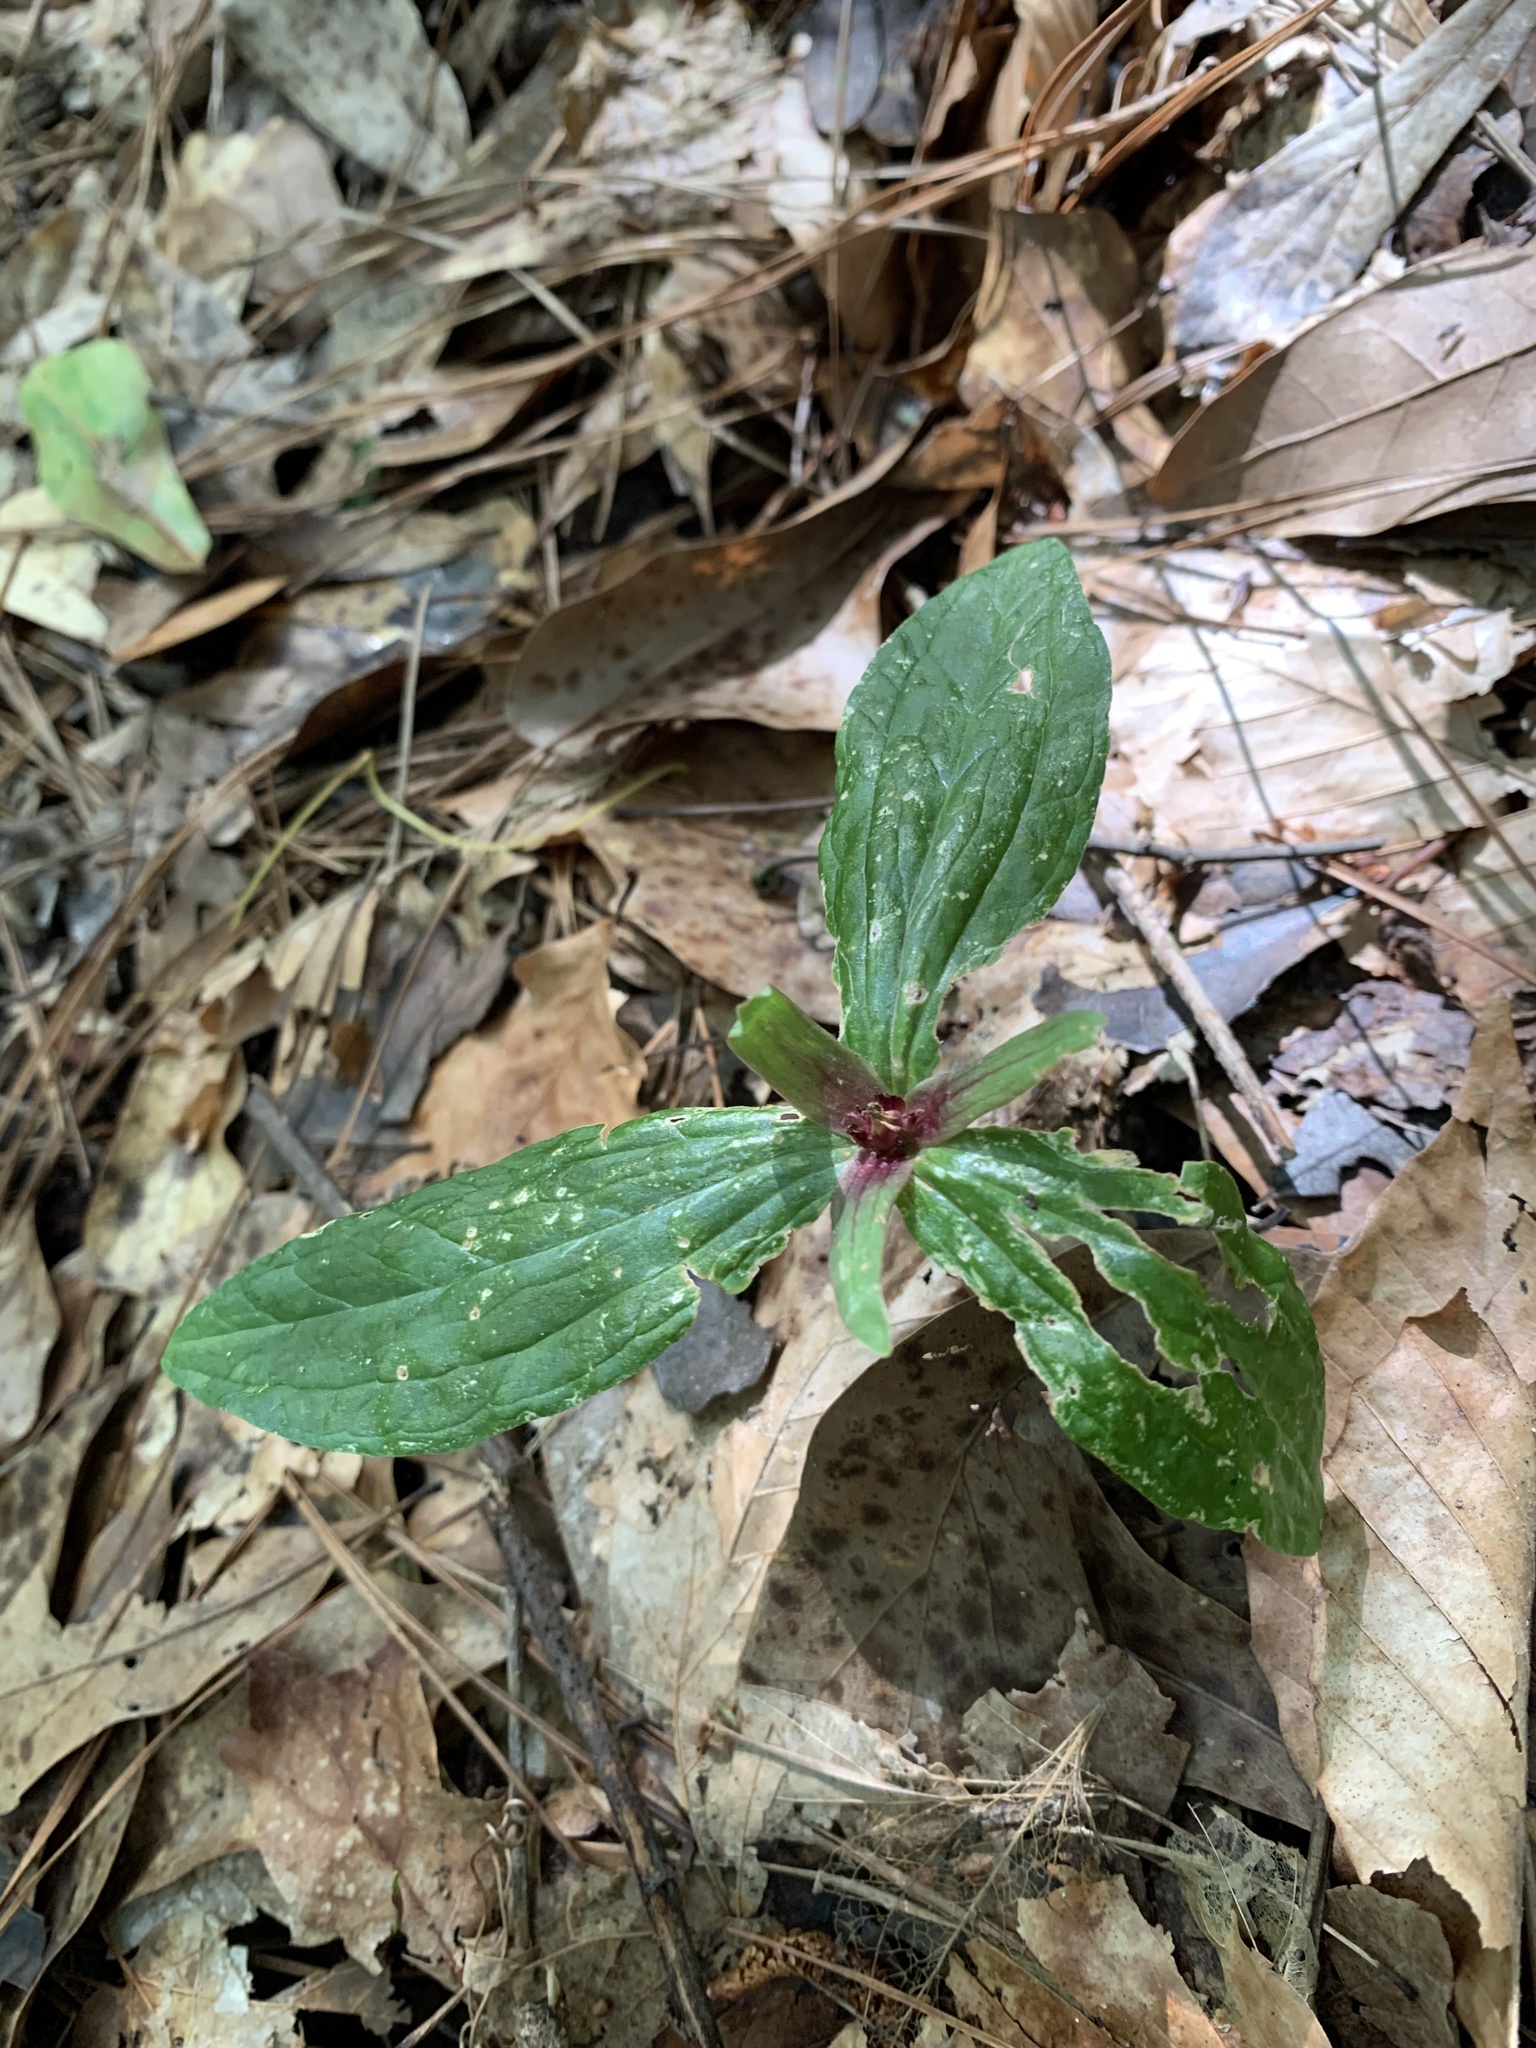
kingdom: Plantae
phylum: Tracheophyta
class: Liliopsida
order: Liliales
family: Melanthiaceae
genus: Trillium
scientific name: Trillium gracile
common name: Graceful trillium
